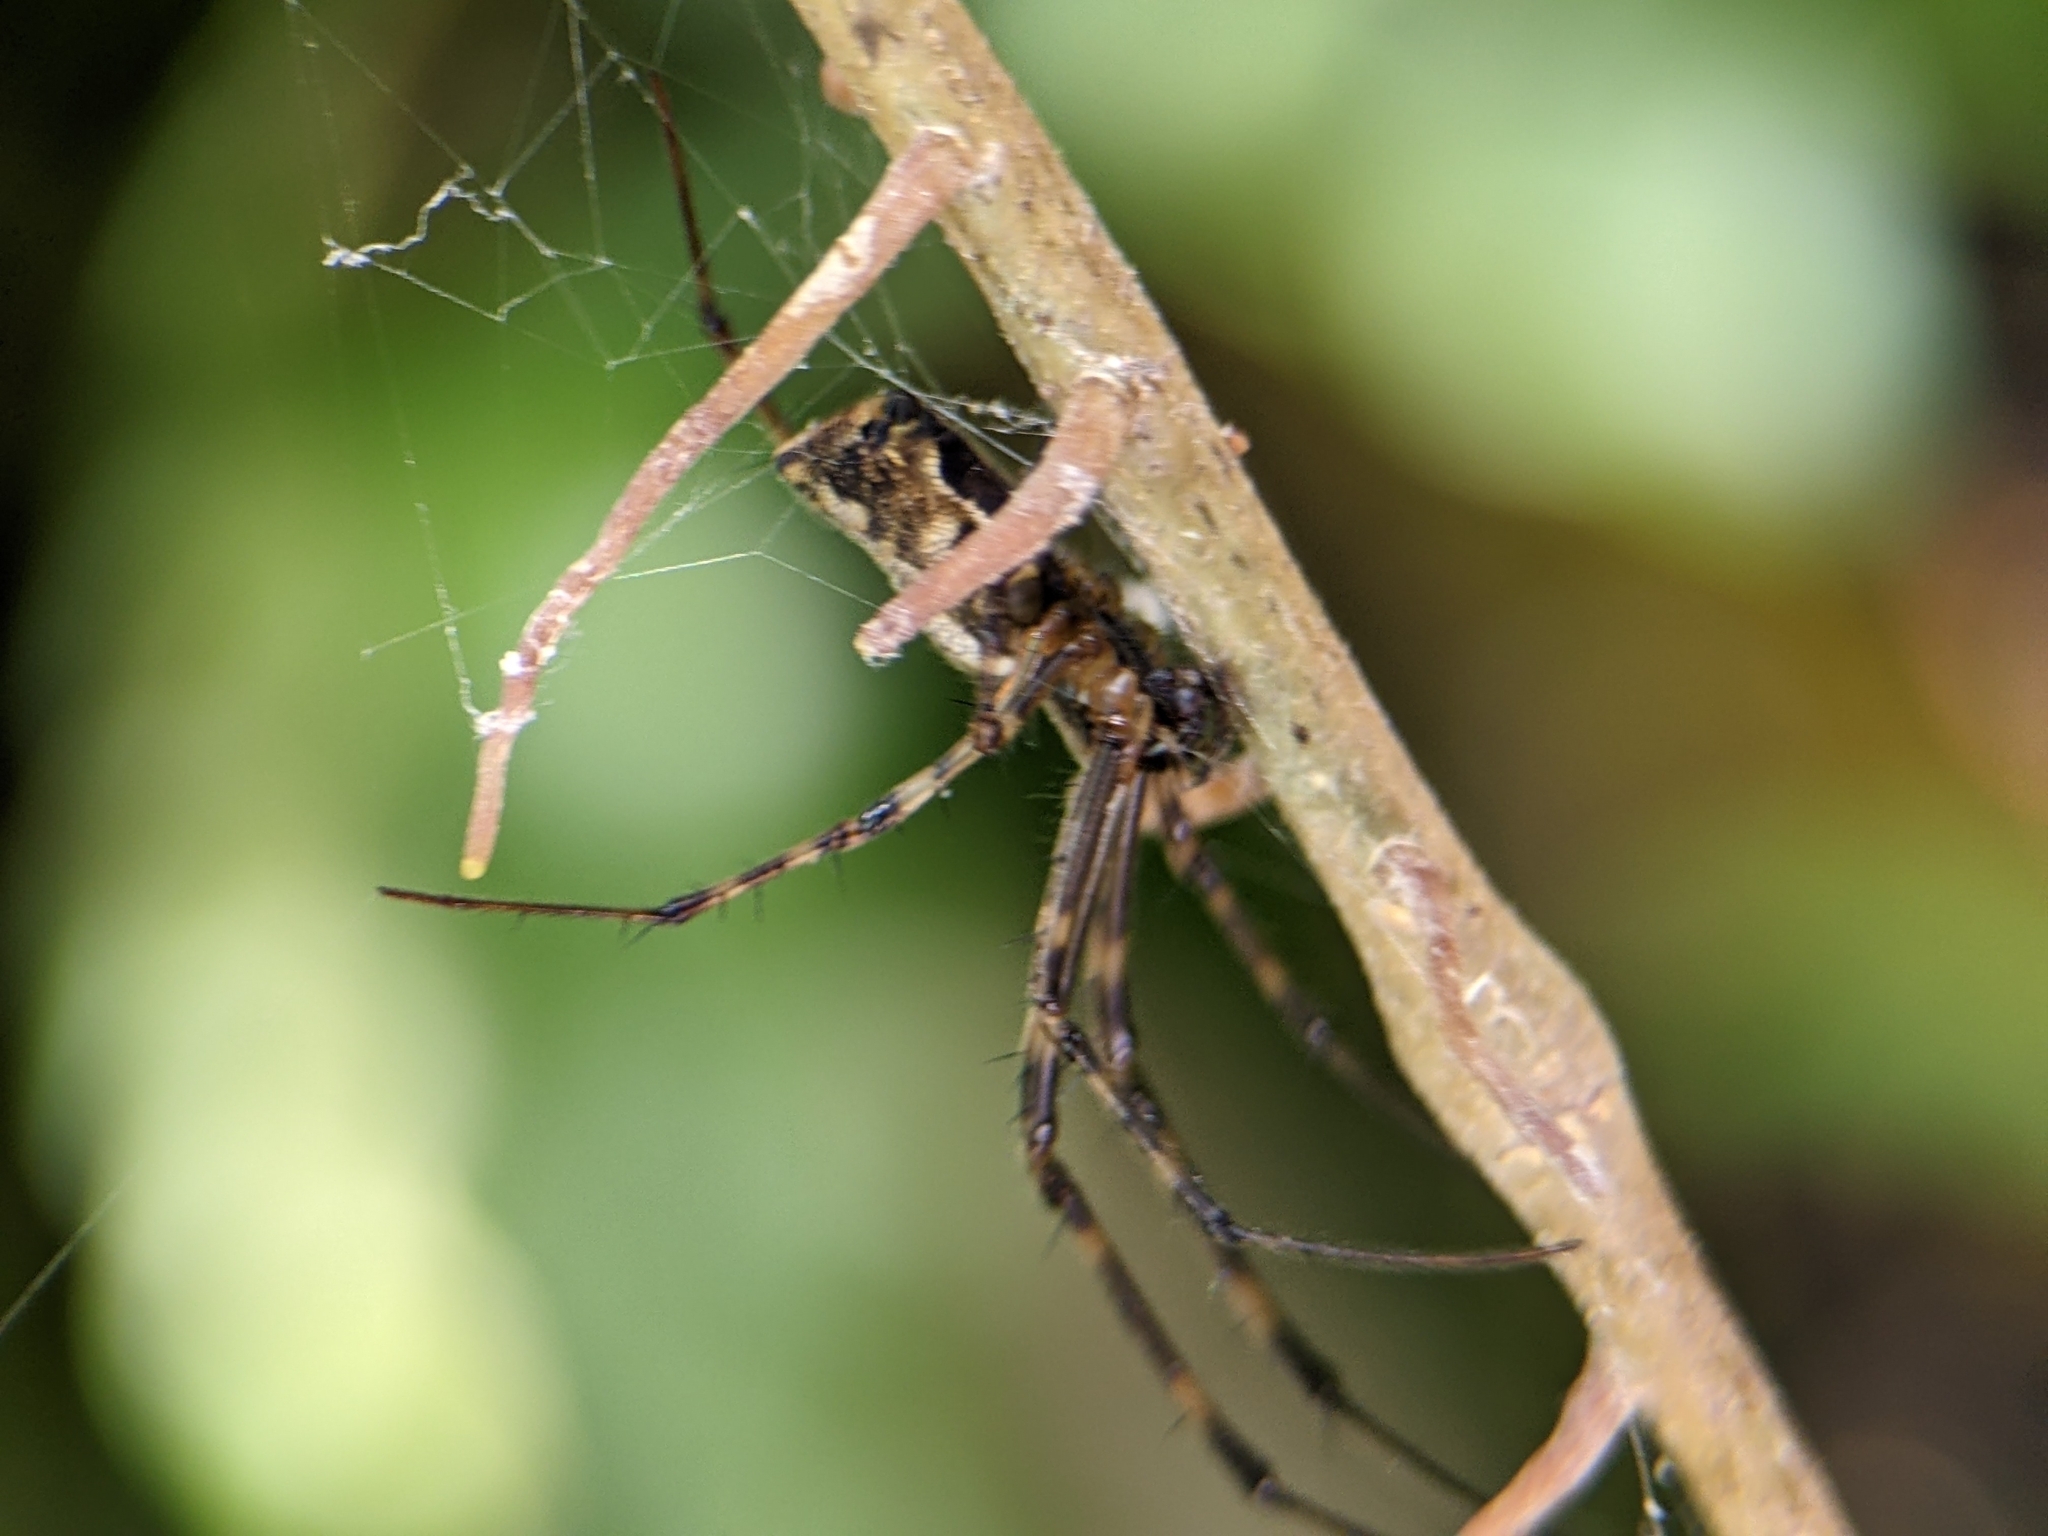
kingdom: Animalia
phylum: Arthropoda
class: Arachnida
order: Araneae
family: Tetragnathidae
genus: Tylorida
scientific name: Tylorida ventralis
